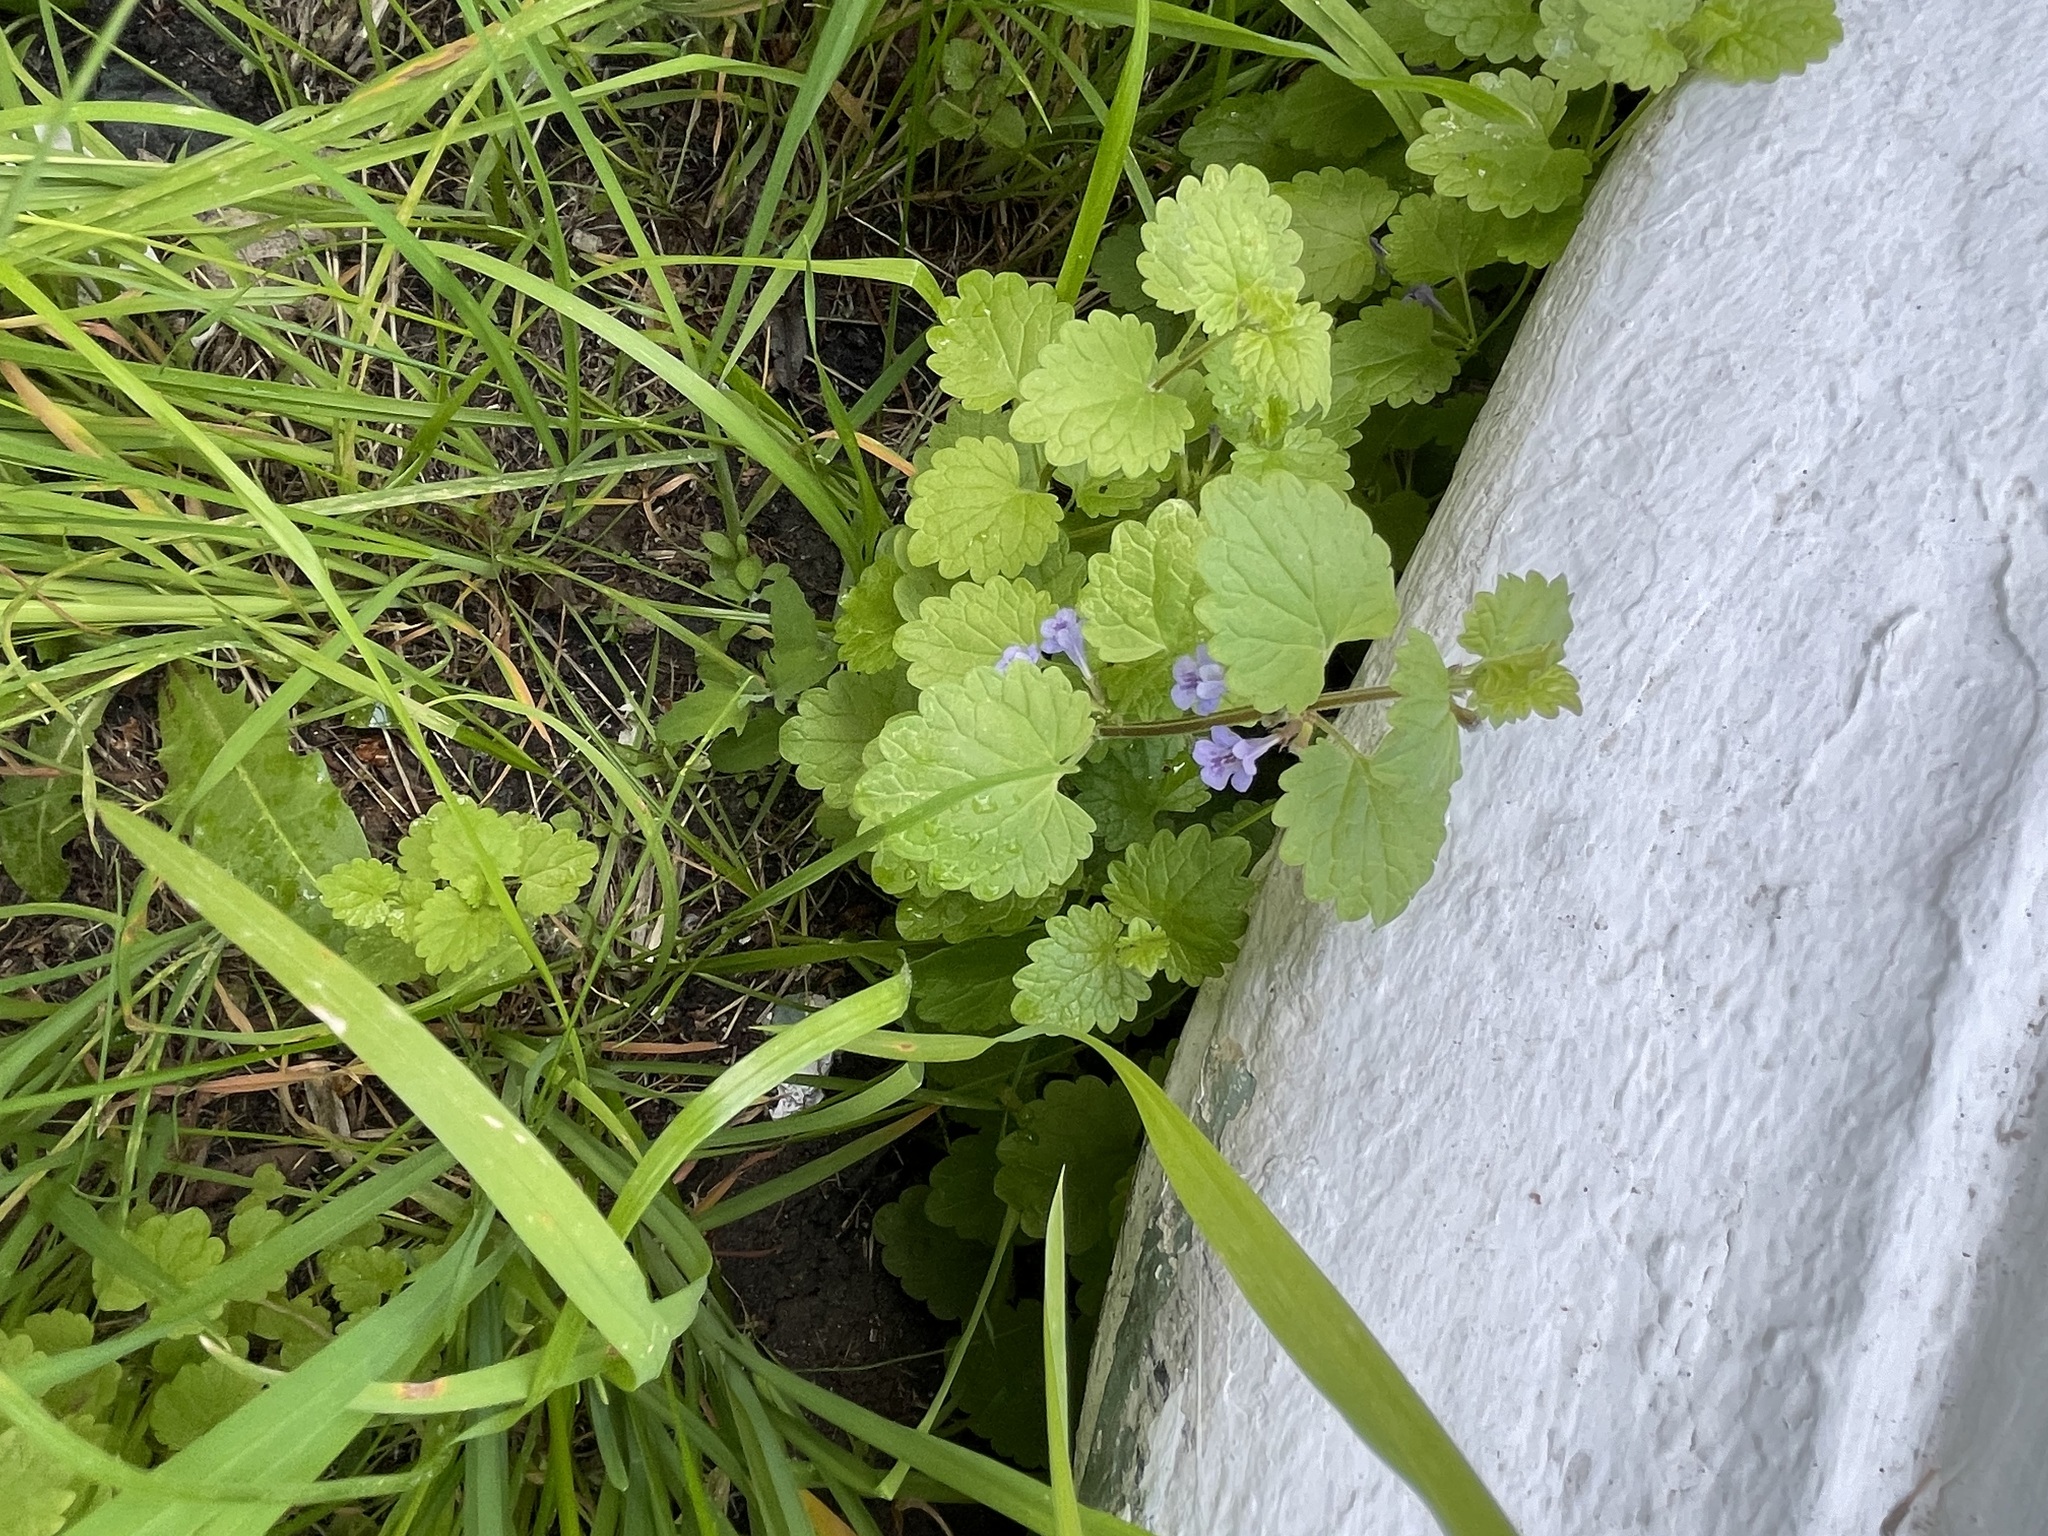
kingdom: Plantae
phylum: Tracheophyta
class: Magnoliopsida
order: Lamiales
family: Lamiaceae
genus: Glechoma
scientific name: Glechoma hederacea
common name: Ground ivy
